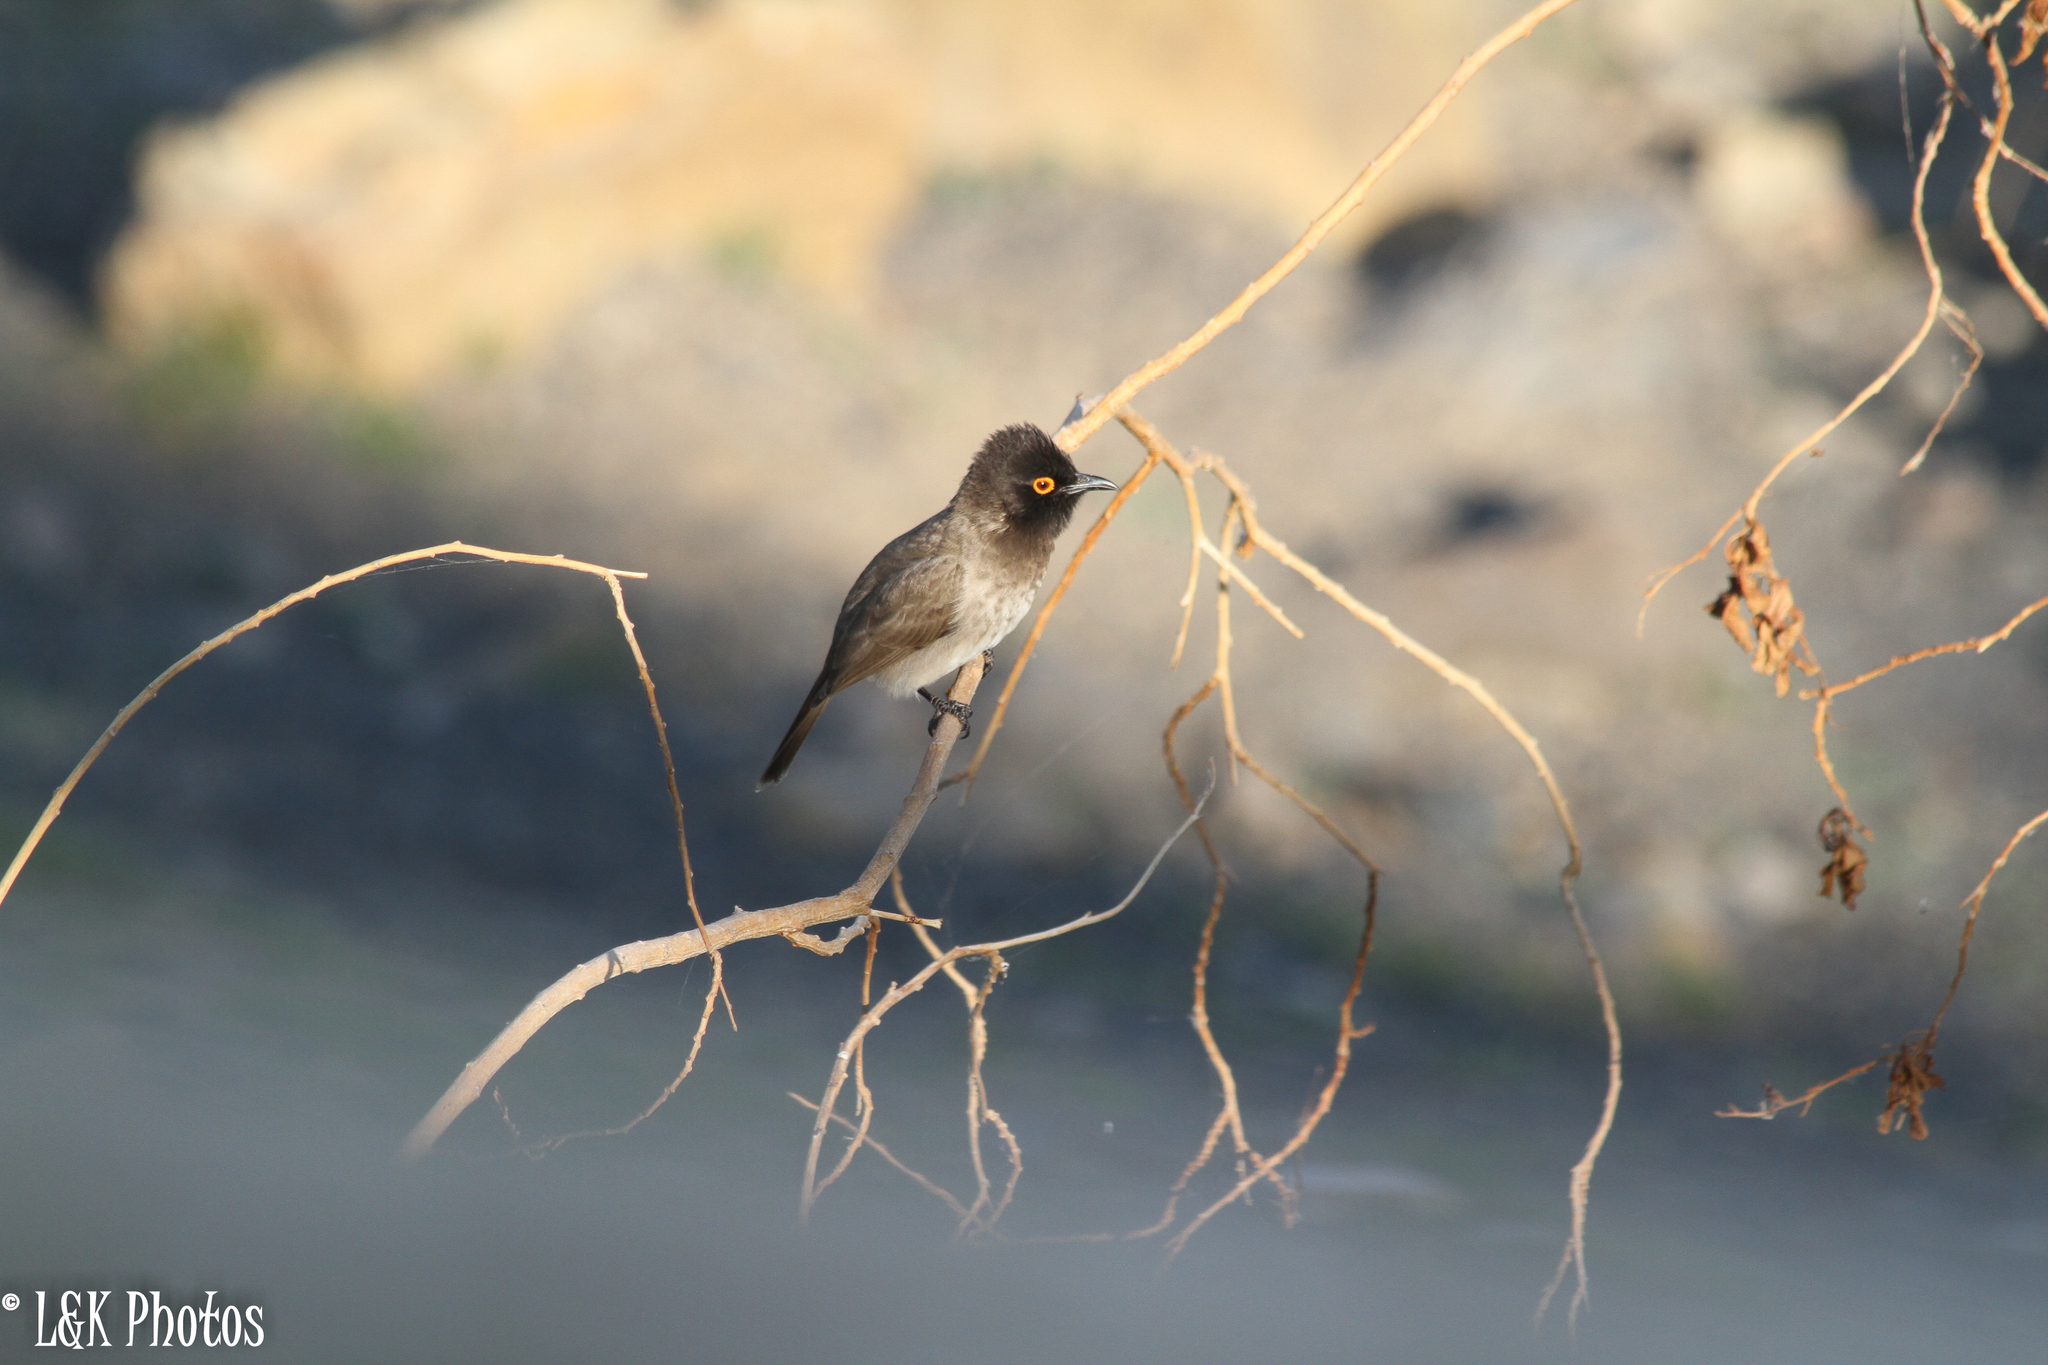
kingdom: Animalia
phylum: Chordata
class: Aves
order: Passeriformes
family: Pycnonotidae
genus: Pycnonotus
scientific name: Pycnonotus nigricans
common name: African red-eyed bulbul
